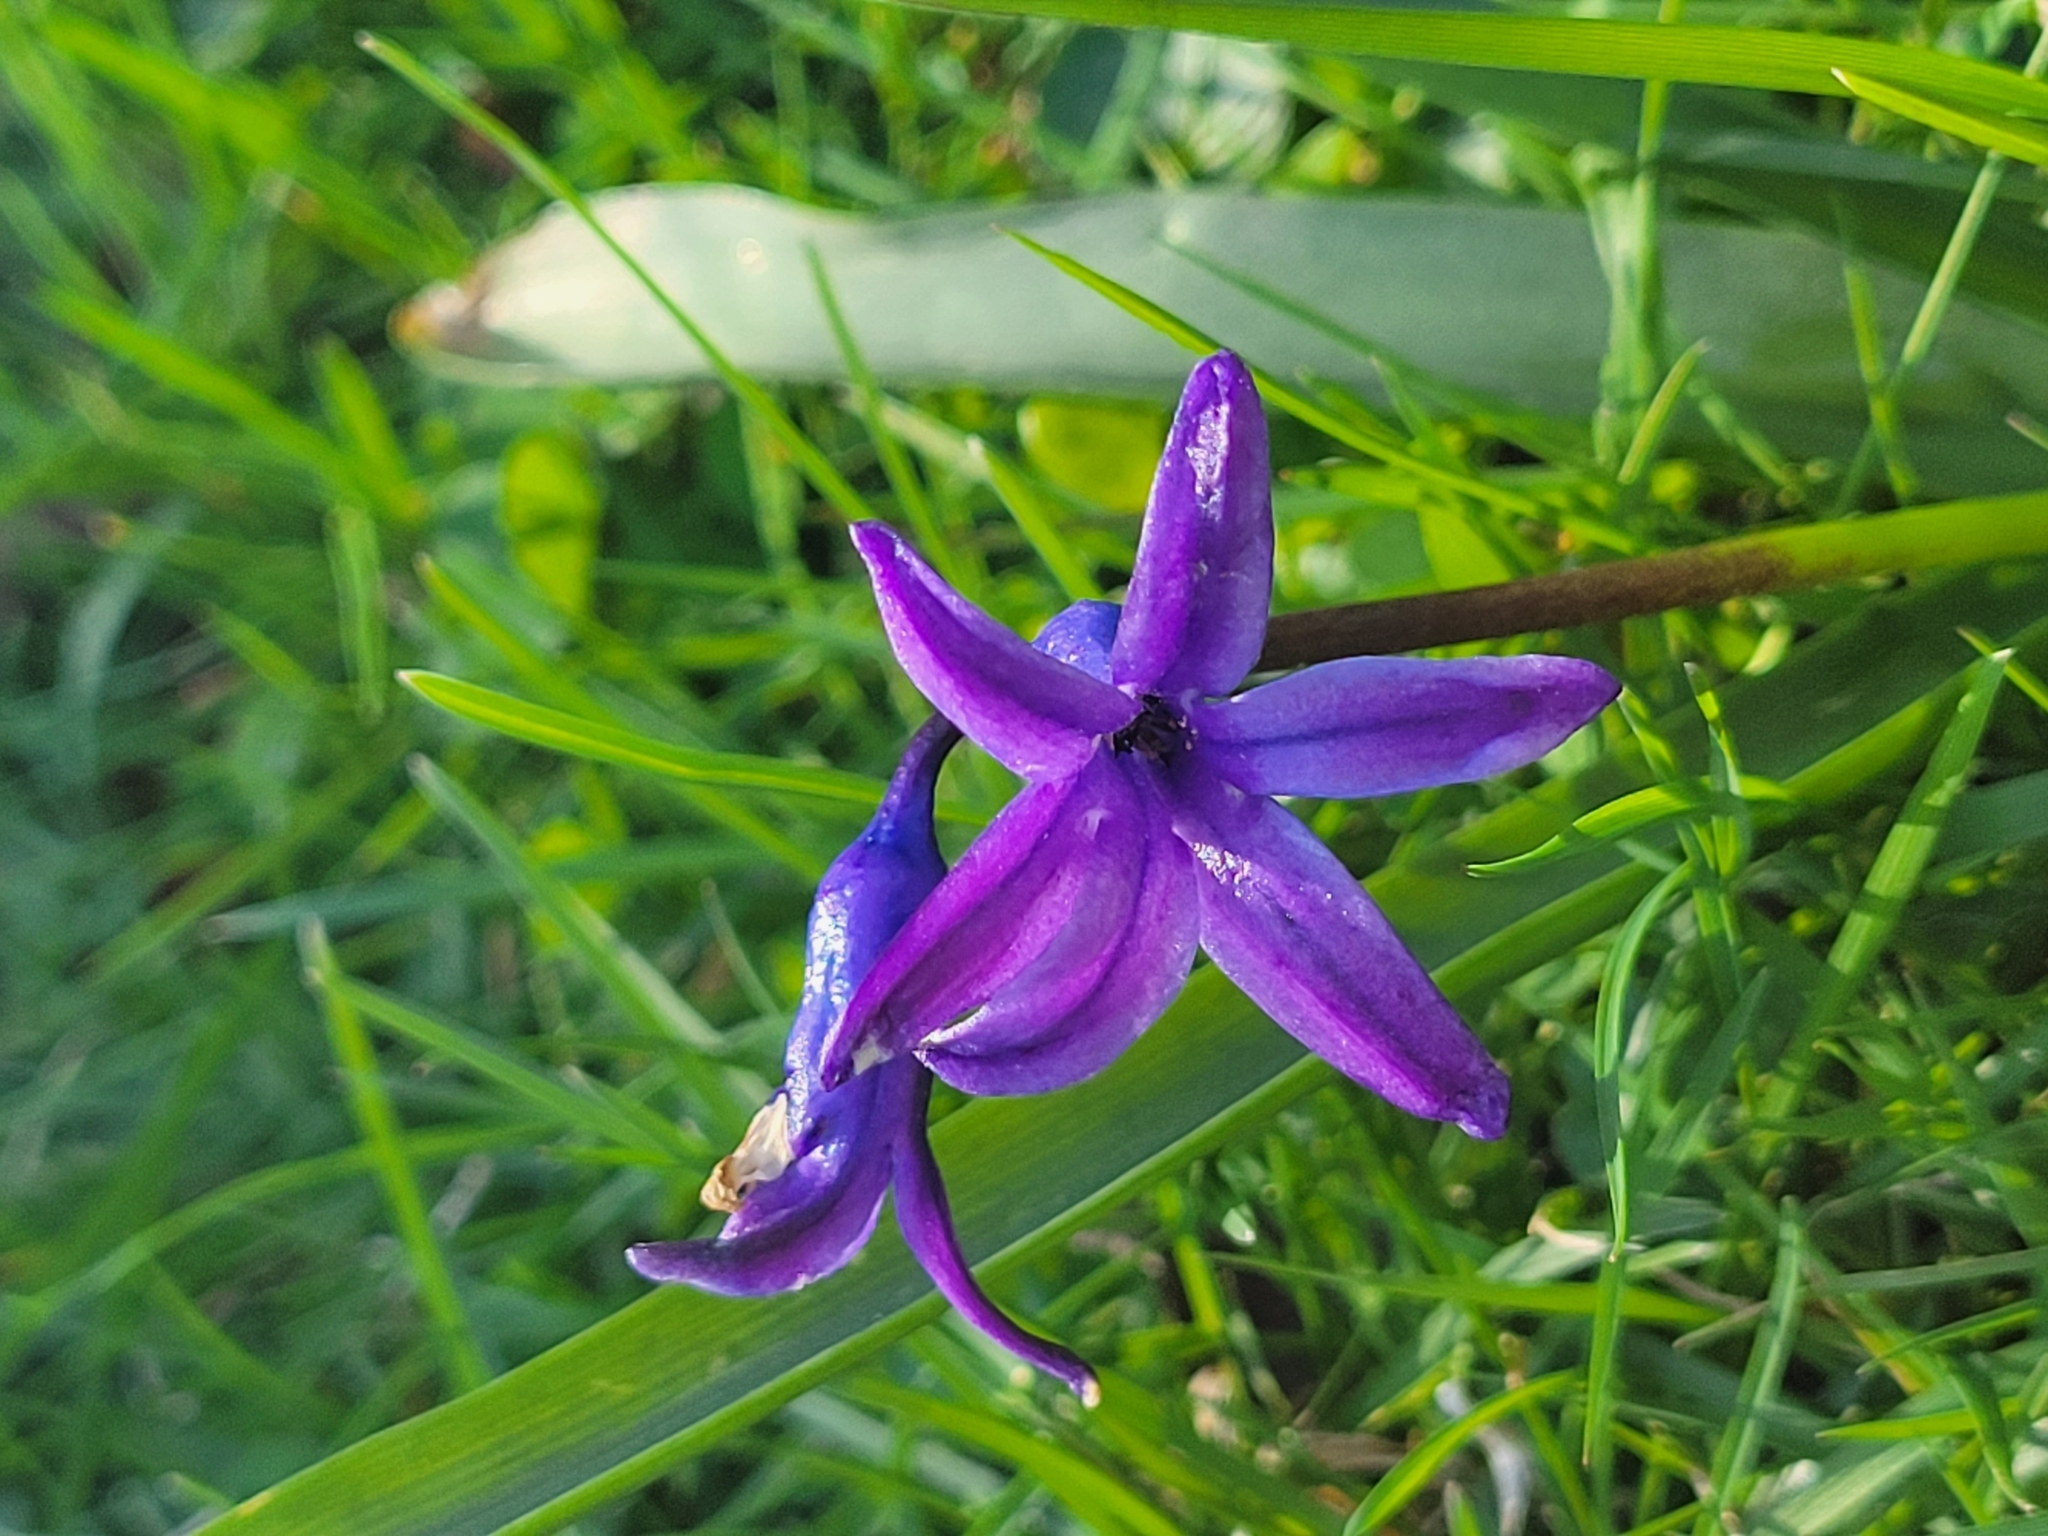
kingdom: Plantae
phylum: Tracheophyta
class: Liliopsida
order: Asparagales
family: Asparagaceae
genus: Hyacinthus
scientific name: Hyacinthus orientalis
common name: Hyacinth
